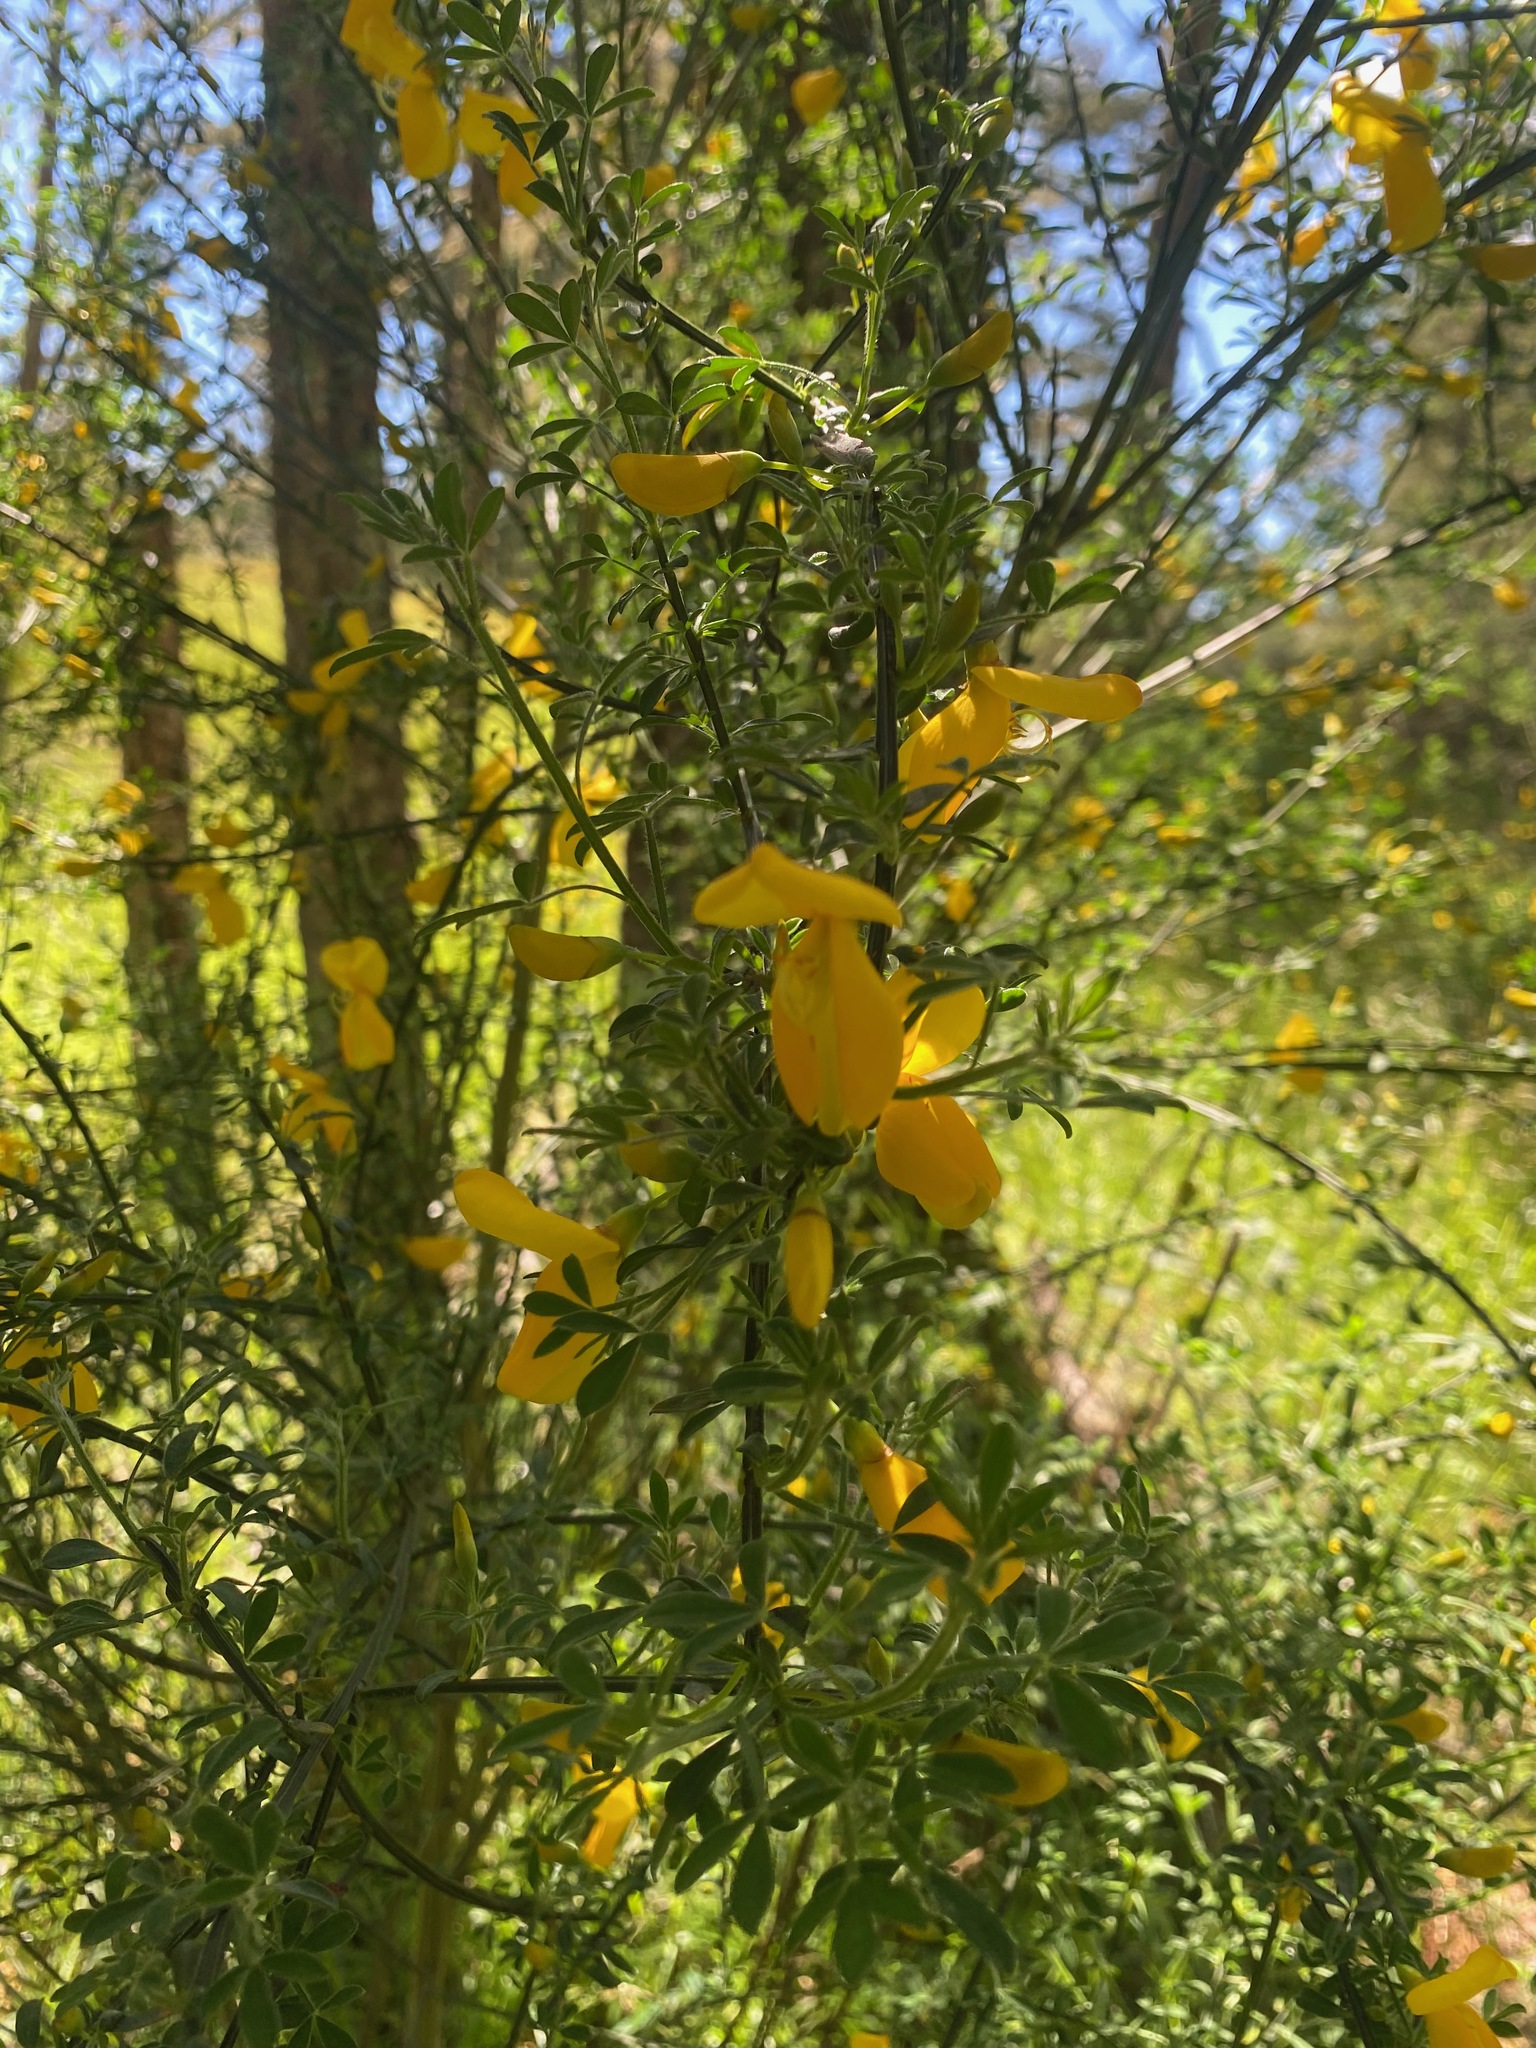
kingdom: Plantae
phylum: Tracheophyta
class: Magnoliopsida
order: Fabales
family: Fabaceae
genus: Cytisus
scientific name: Cytisus scoparius
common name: Scotch broom
